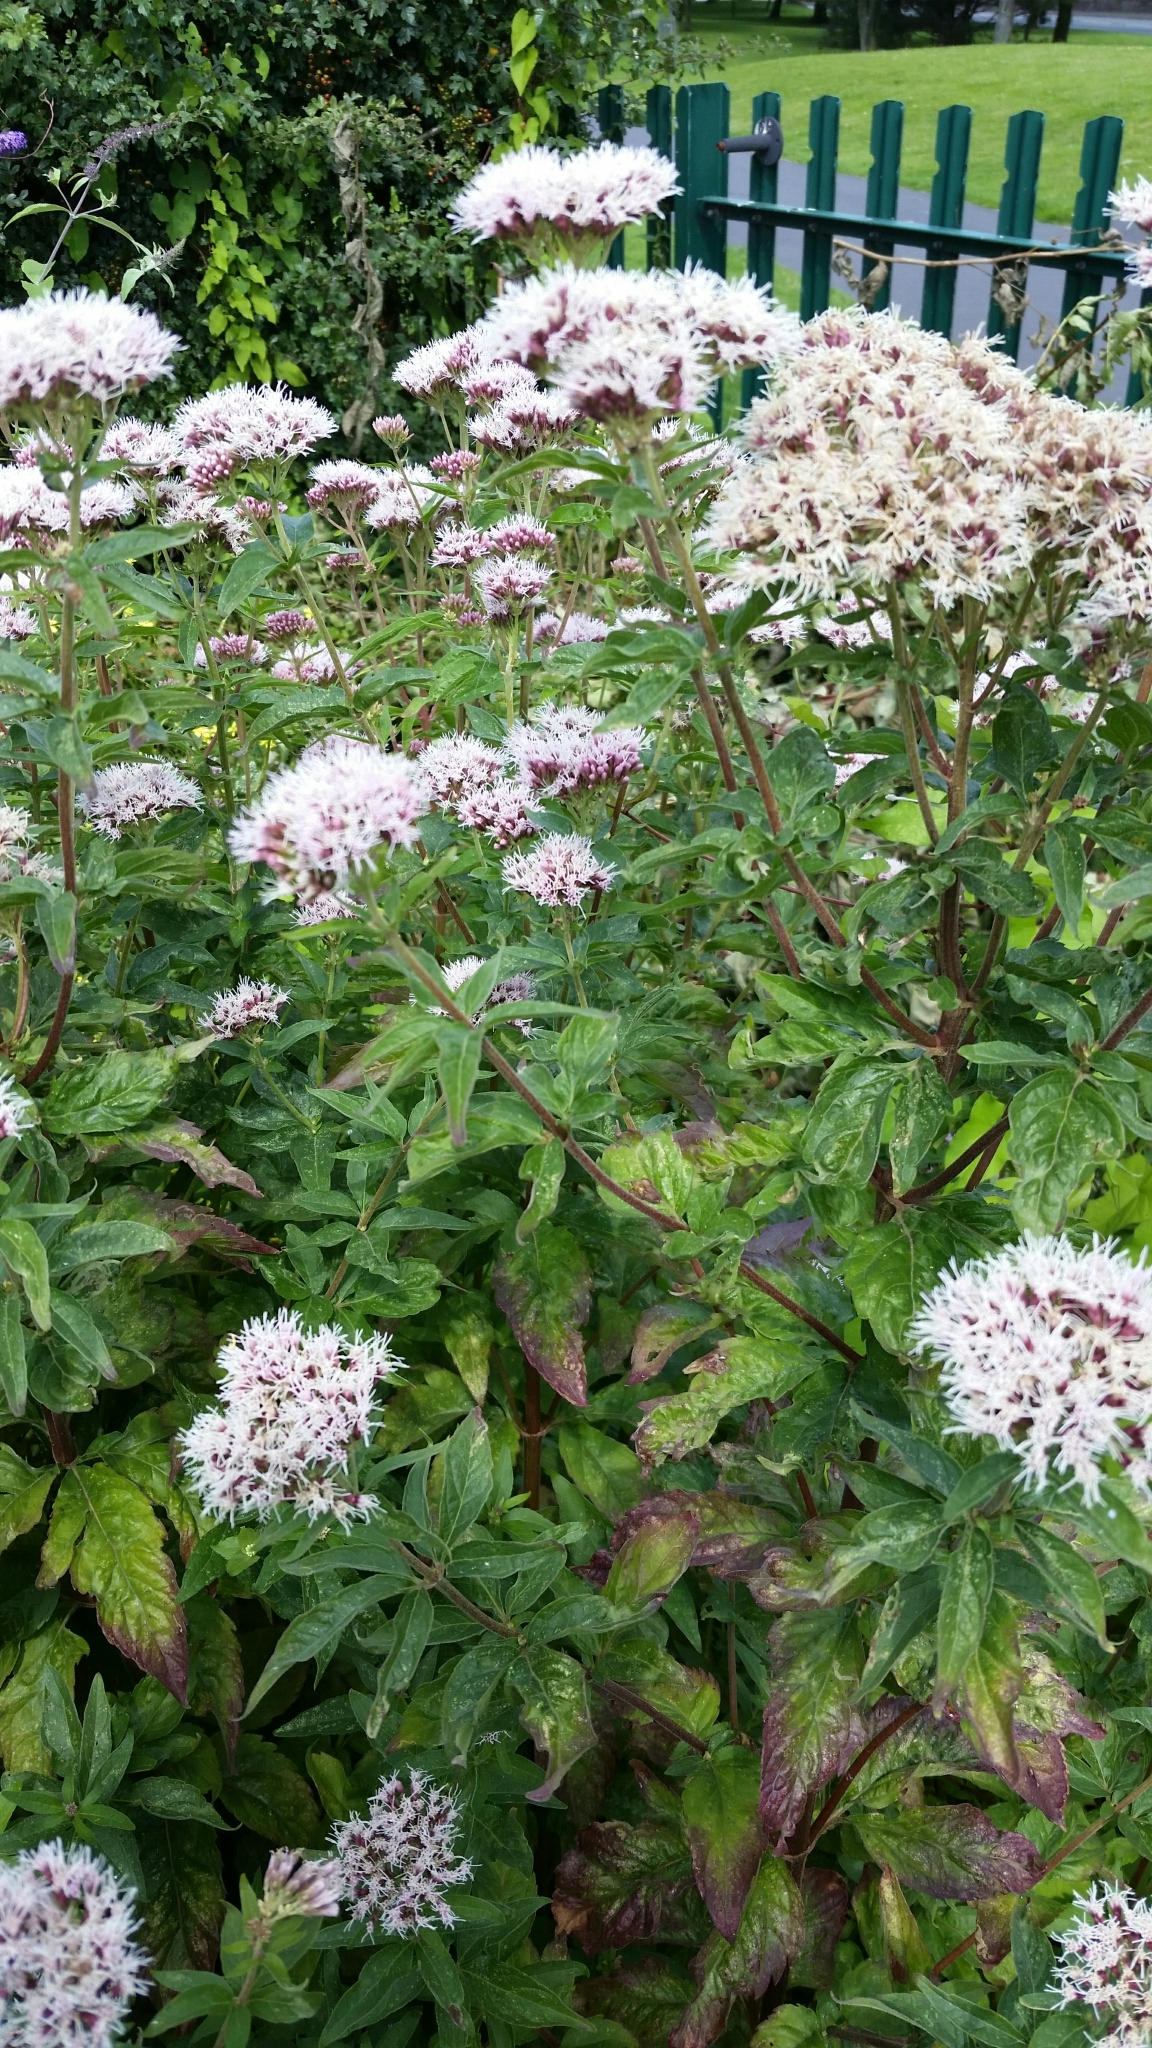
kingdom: Plantae
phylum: Tracheophyta
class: Magnoliopsida
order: Asterales
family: Asteraceae
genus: Eupatorium
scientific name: Eupatorium cannabinum
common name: Hemp-agrimony
